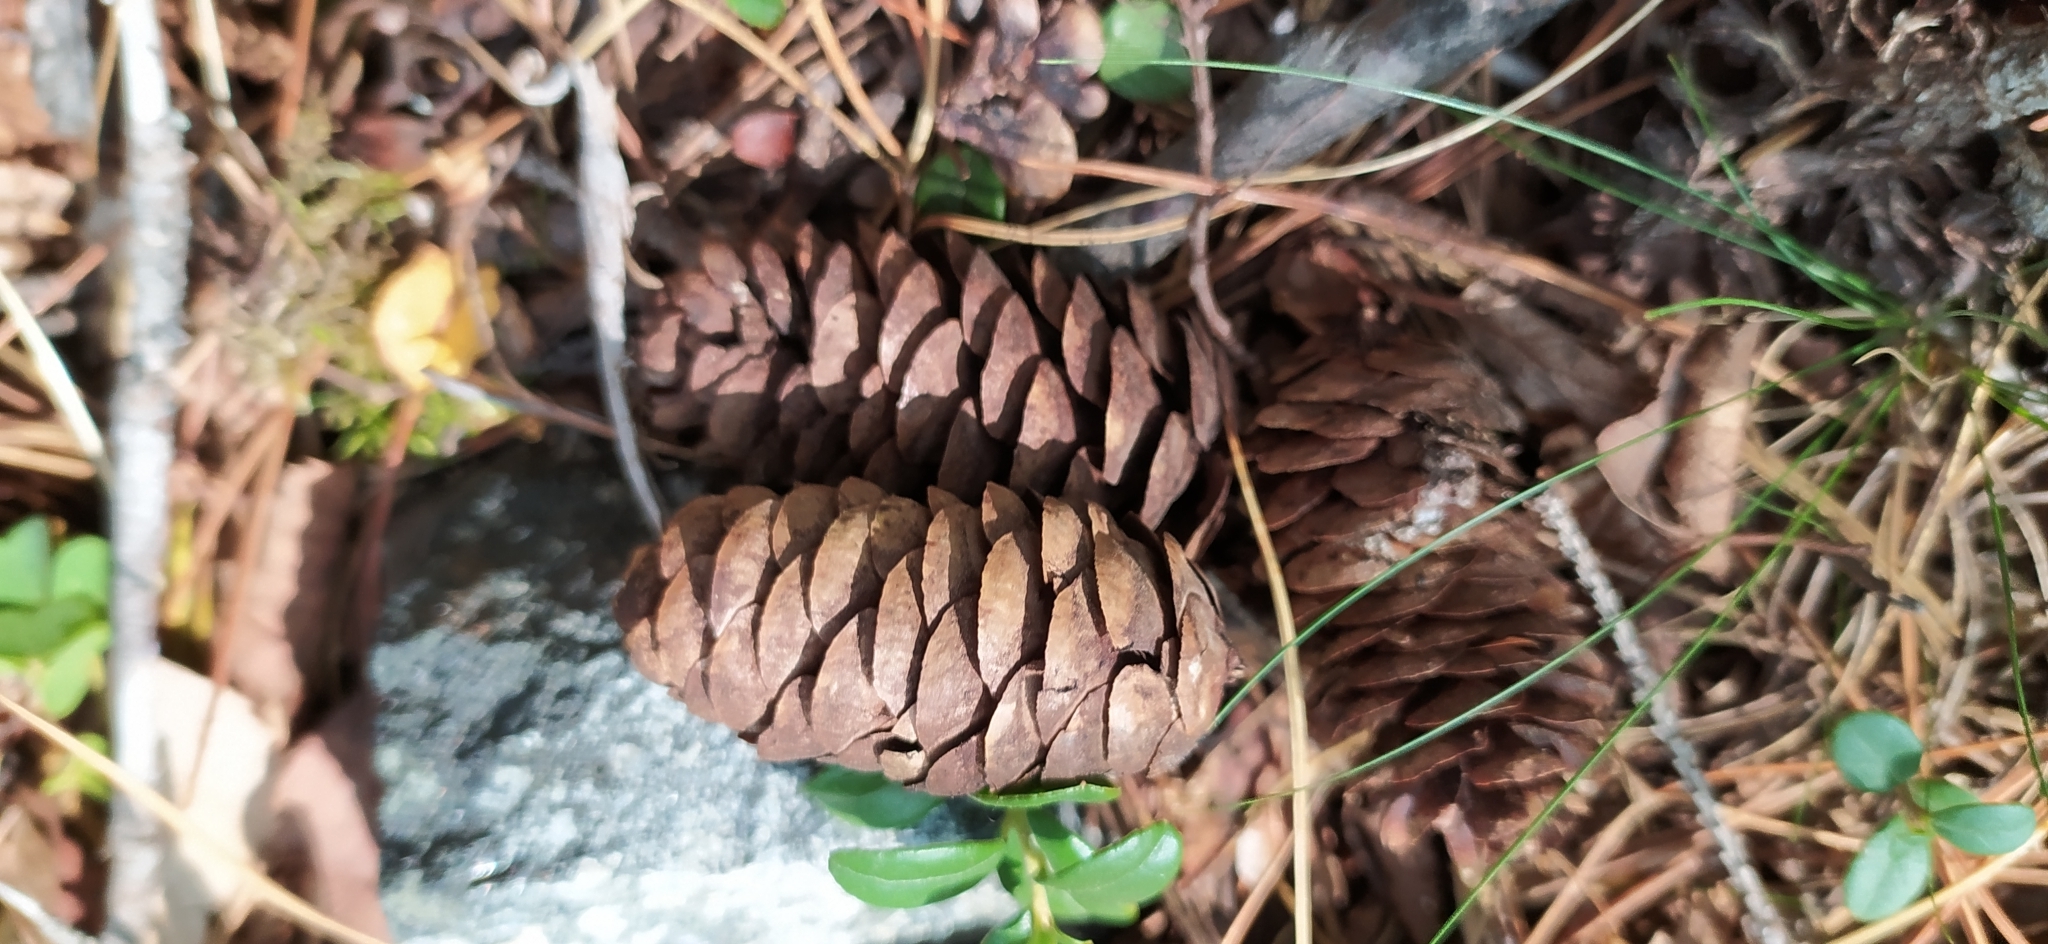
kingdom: Plantae
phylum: Tracheophyta
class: Pinopsida
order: Pinales
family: Pinaceae
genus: Picea
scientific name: Picea obovata
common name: Siberian spruce
